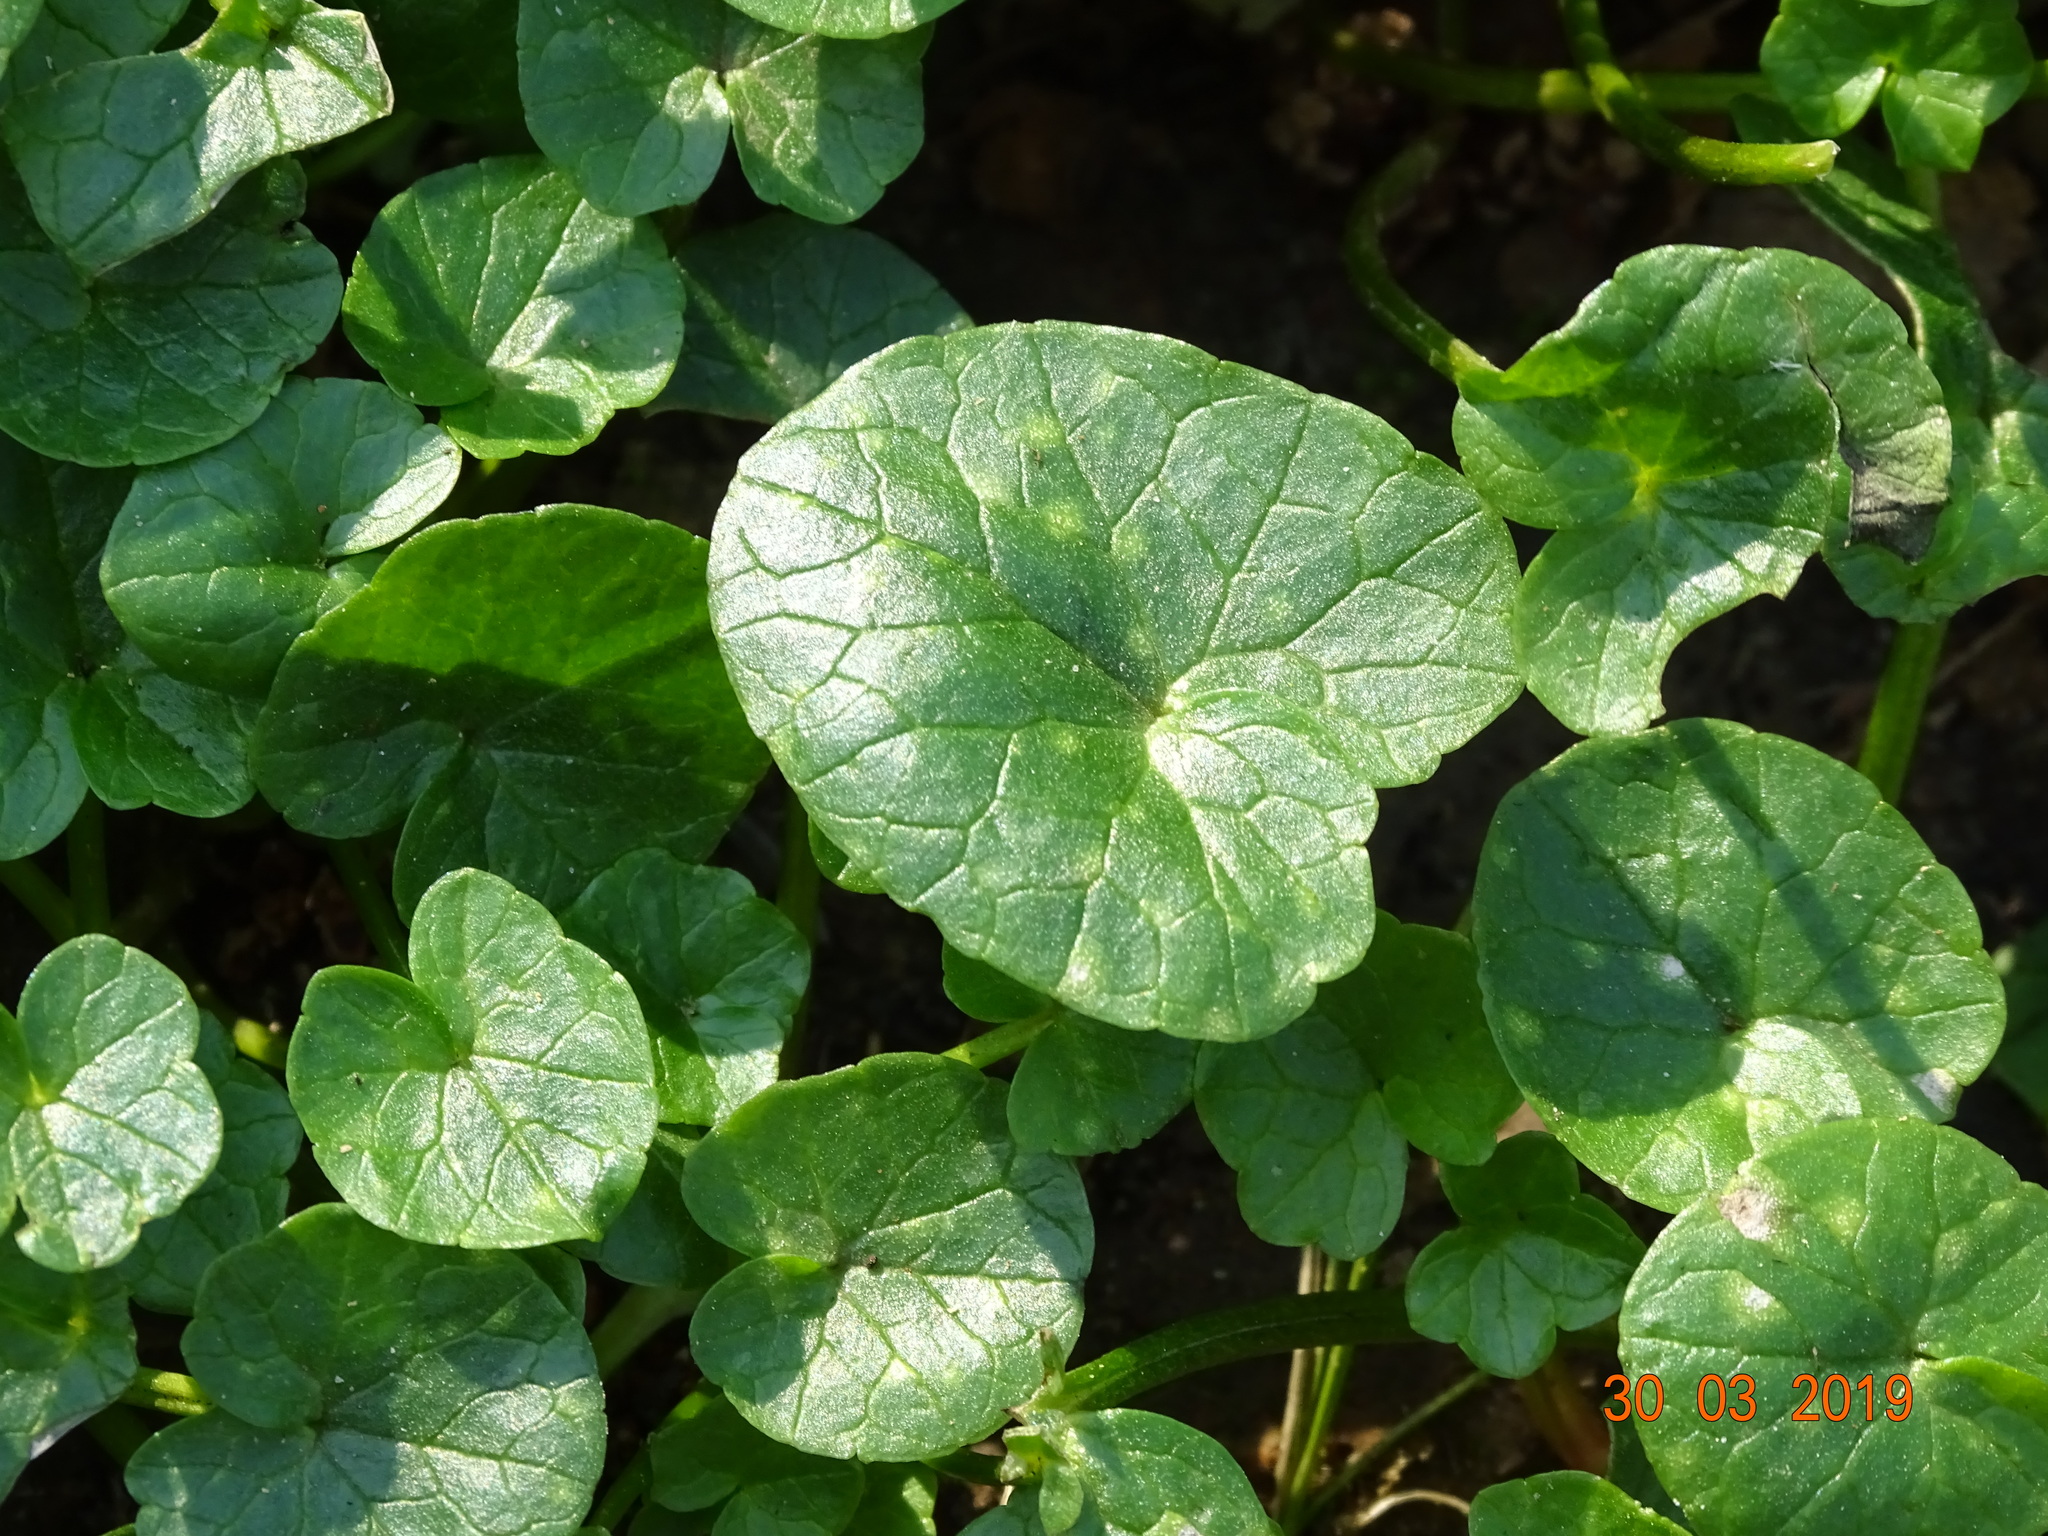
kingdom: Plantae
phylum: Tracheophyta
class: Magnoliopsida
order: Ranunculales
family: Ranunculaceae
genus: Ficaria
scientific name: Ficaria verna
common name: Lesser celandine
